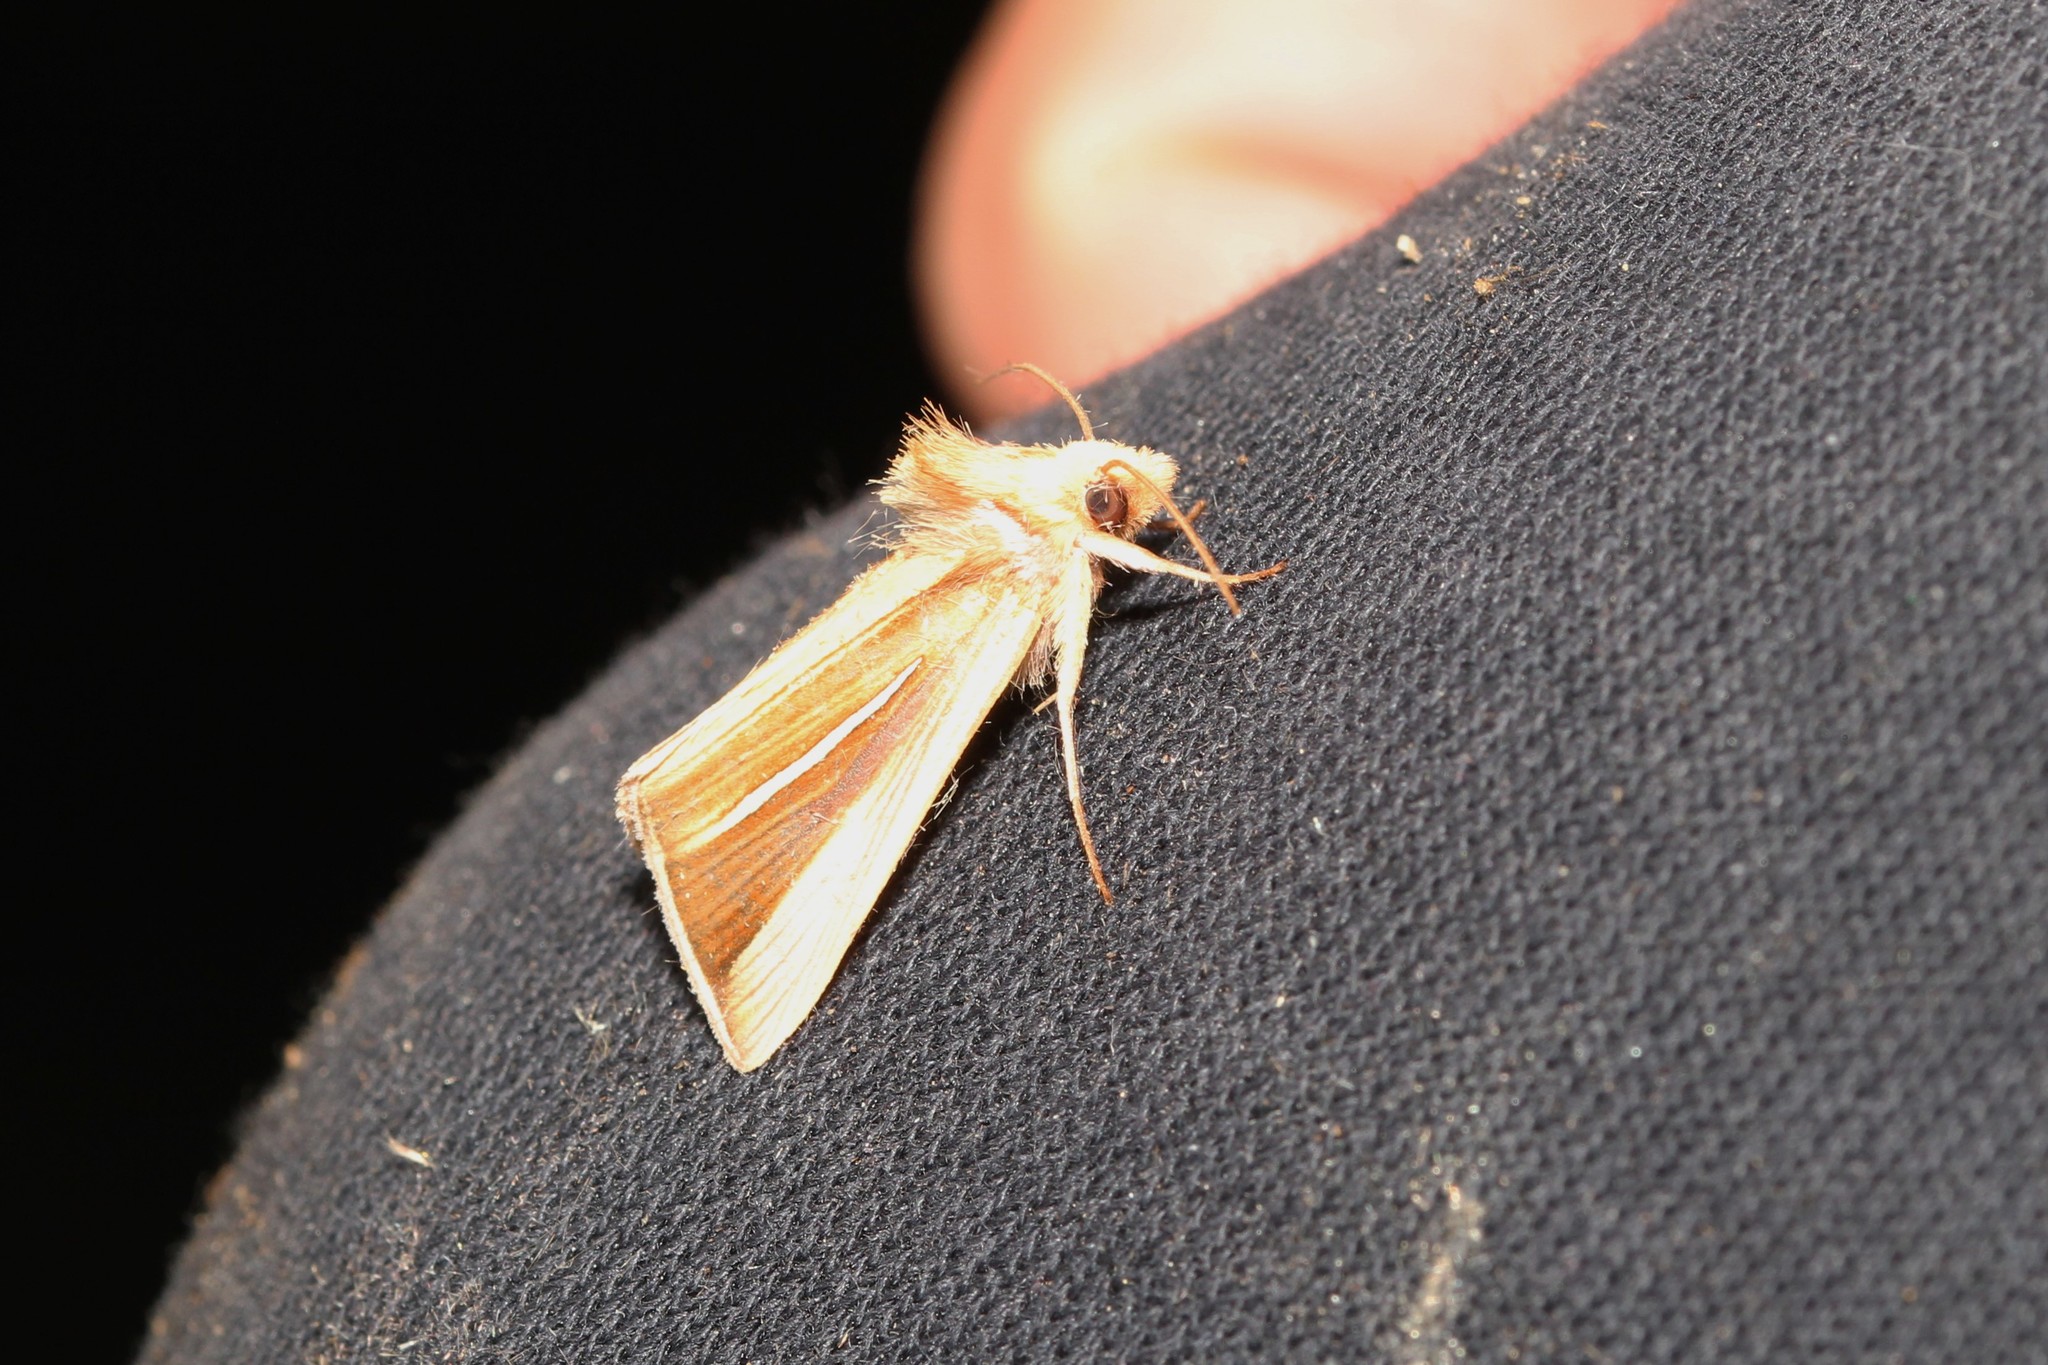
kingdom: Animalia
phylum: Arthropoda
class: Insecta
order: Lepidoptera
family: Noctuidae
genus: Plusia
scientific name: Plusia venusta
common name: White-streaked looper moth
